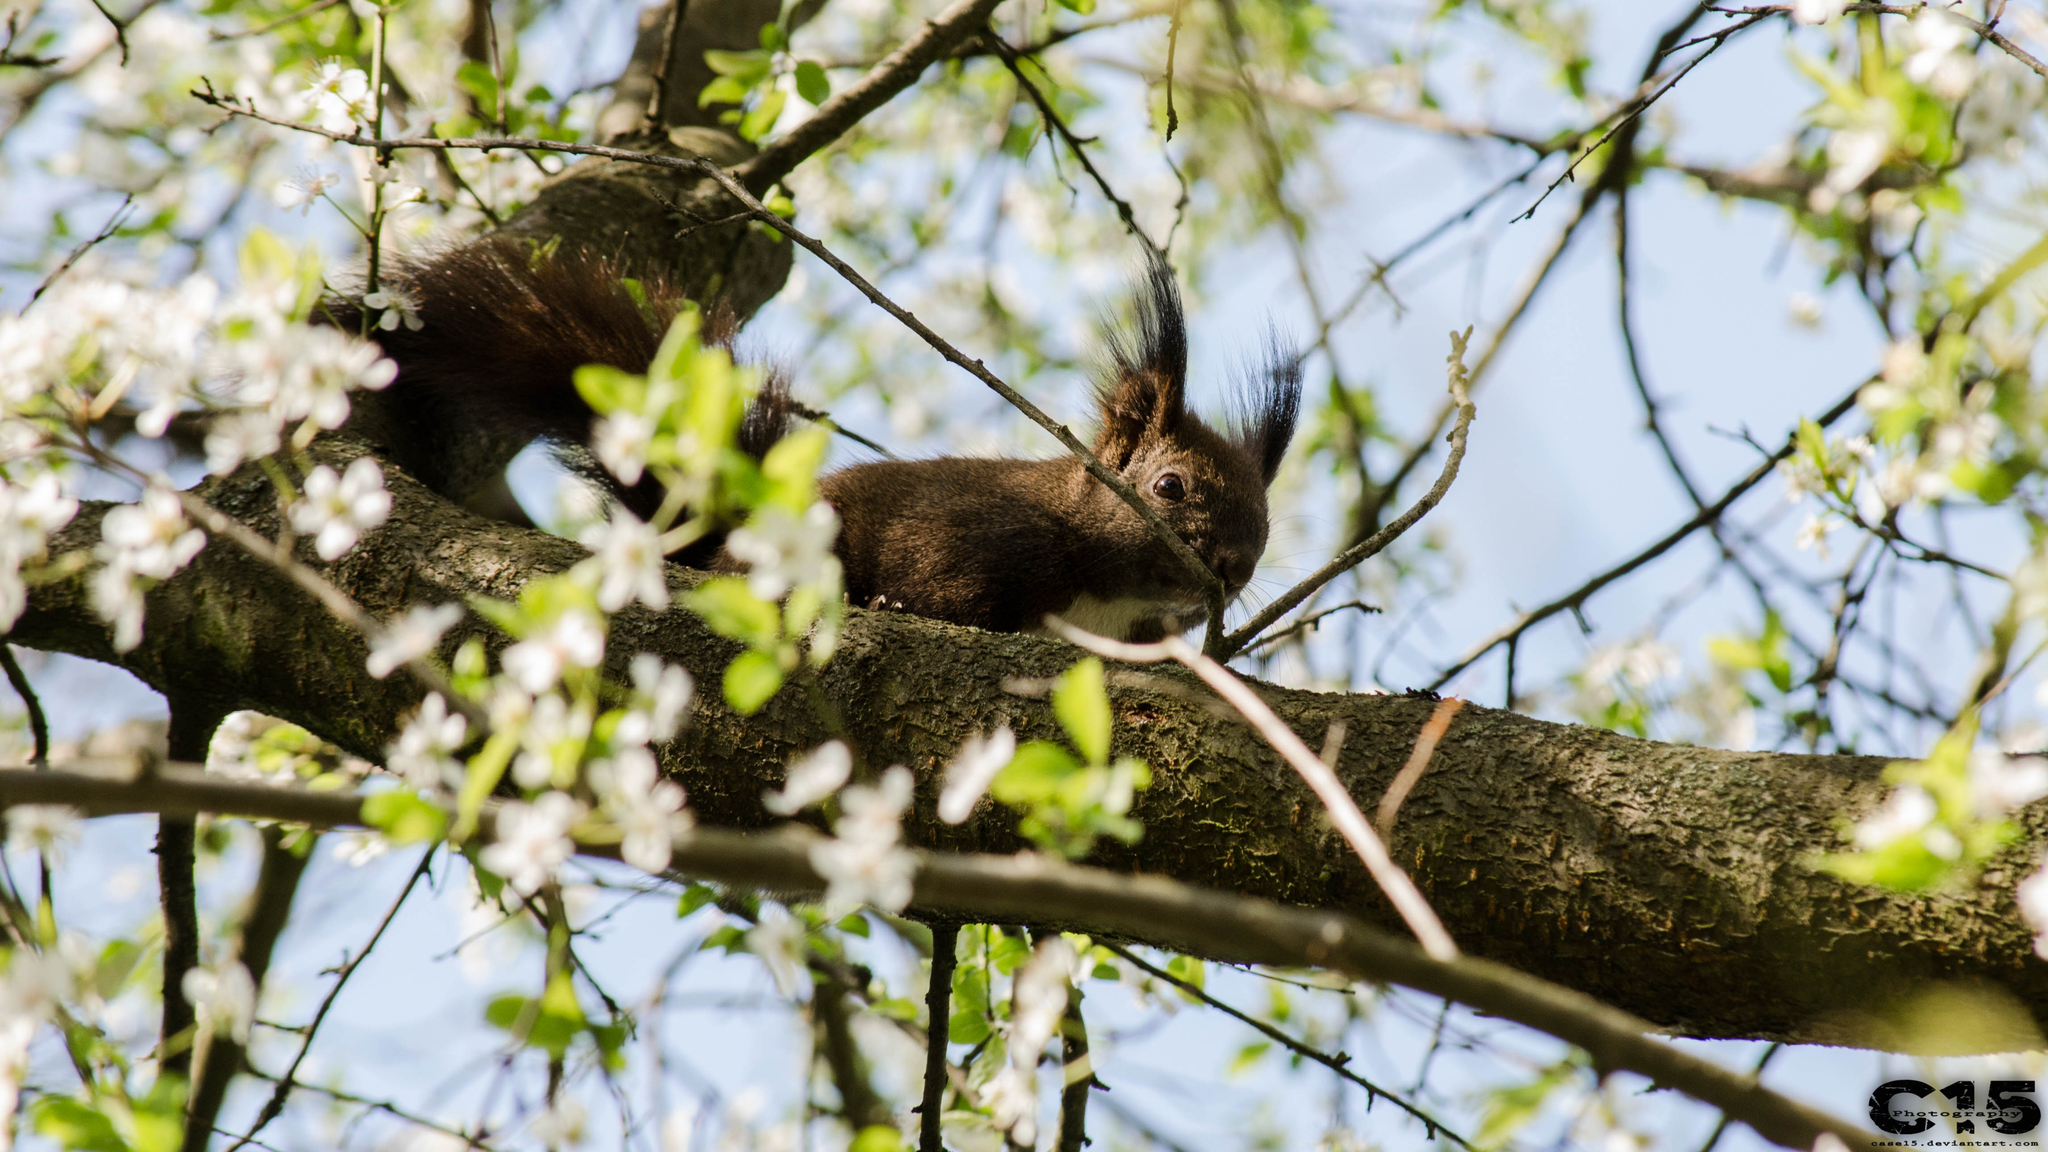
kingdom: Animalia
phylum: Chordata
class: Mammalia
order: Rodentia
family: Sciuridae
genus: Sciurus
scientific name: Sciurus vulgaris
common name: Eurasian red squirrel
